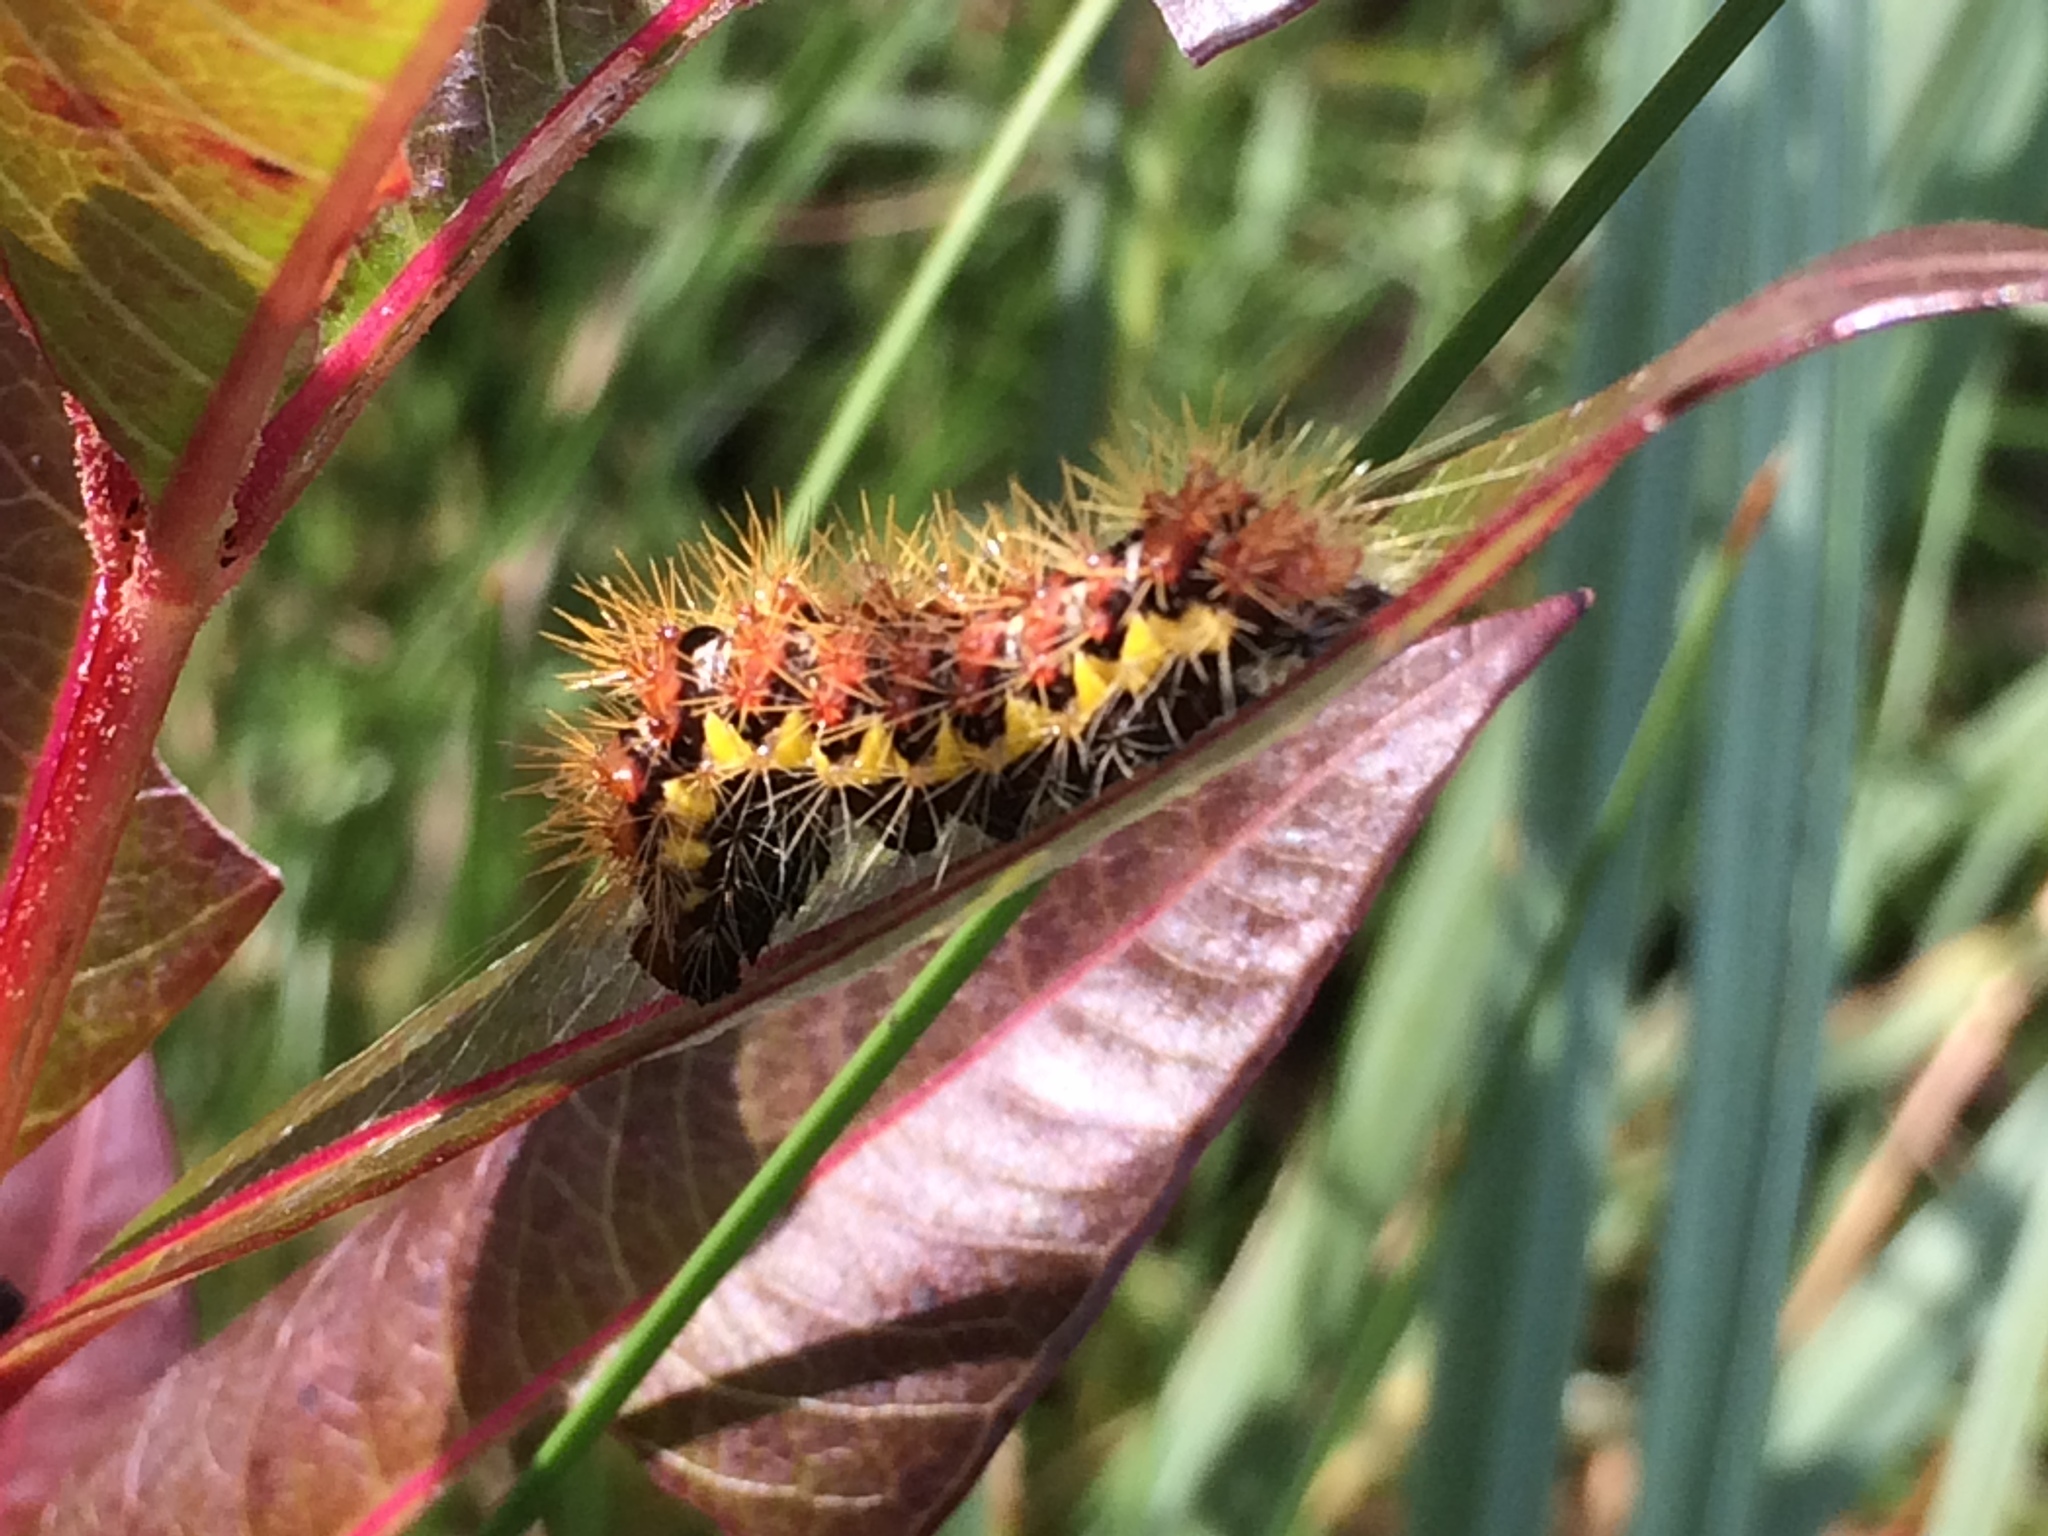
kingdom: Animalia
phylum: Arthropoda
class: Insecta
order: Lepidoptera
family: Noctuidae
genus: Acronicta
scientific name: Acronicta oblinita
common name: Smeared dagger
